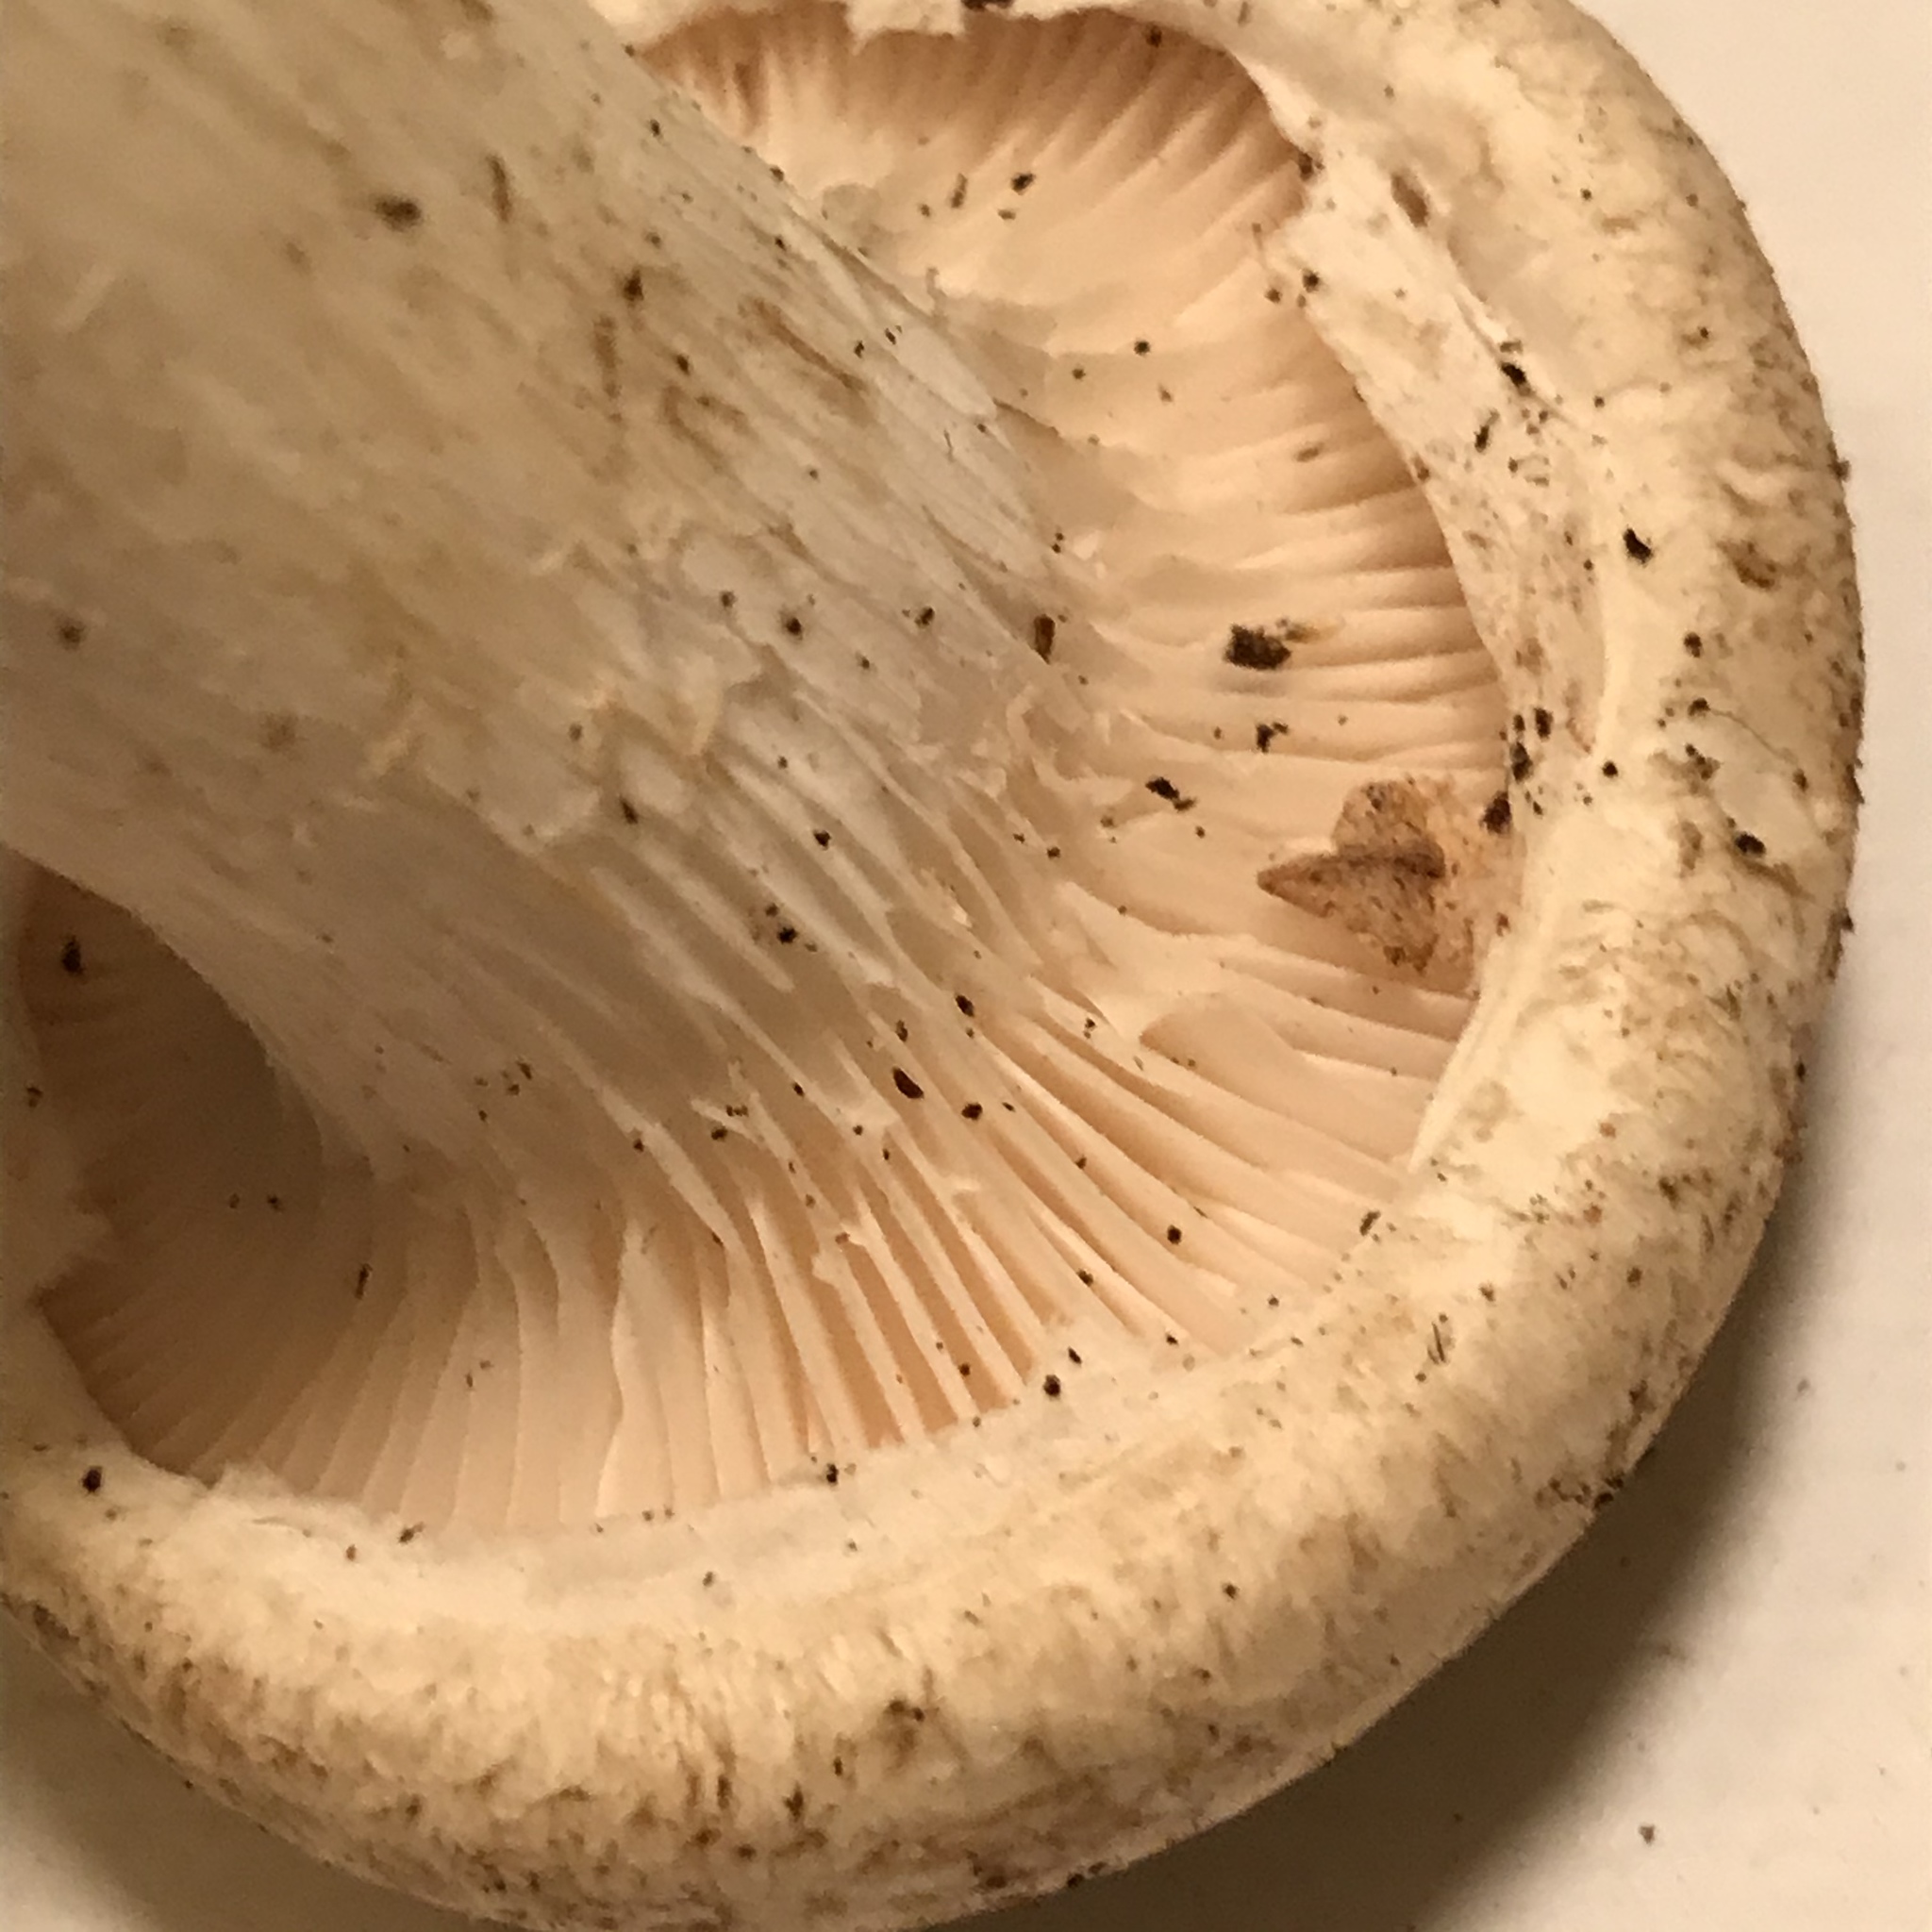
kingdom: Fungi
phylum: Basidiomycota
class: Agaricomycetes
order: Agaricales
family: Pleurotaceae
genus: Pleurotus
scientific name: Pleurotus dryinus
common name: Veiled oyster
